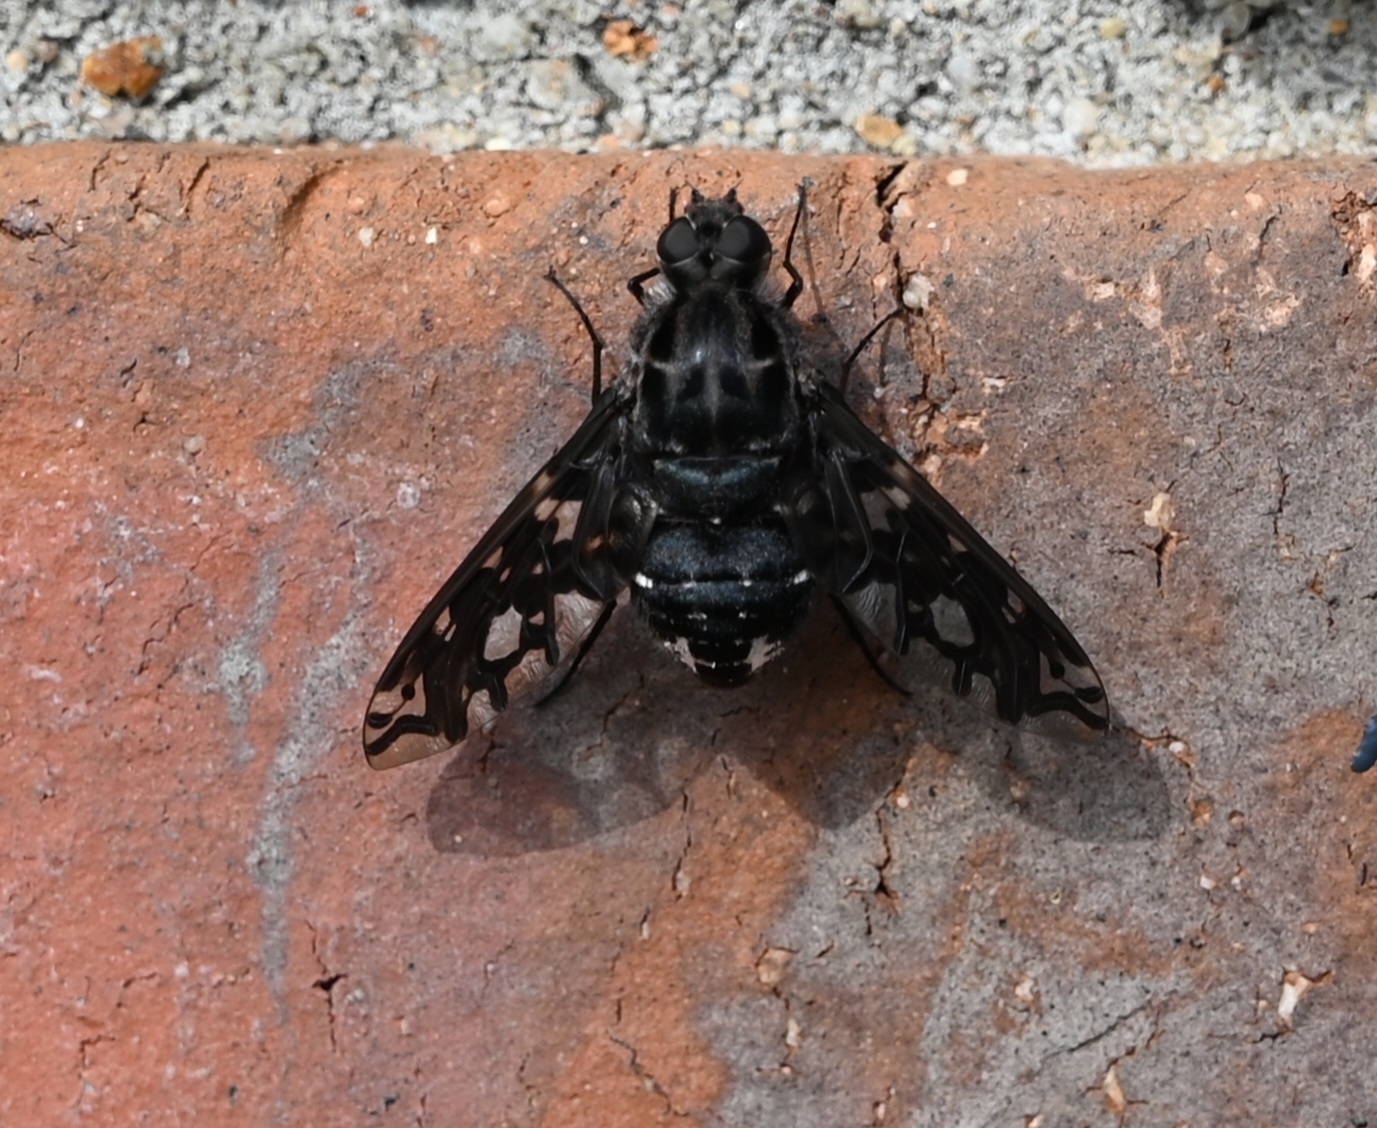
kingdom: Animalia
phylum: Arthropoda
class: Insecta
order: Diptera
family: Bombyliidae
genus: Xenox
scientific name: Xenox tigrinus
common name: Tiger bee fly
